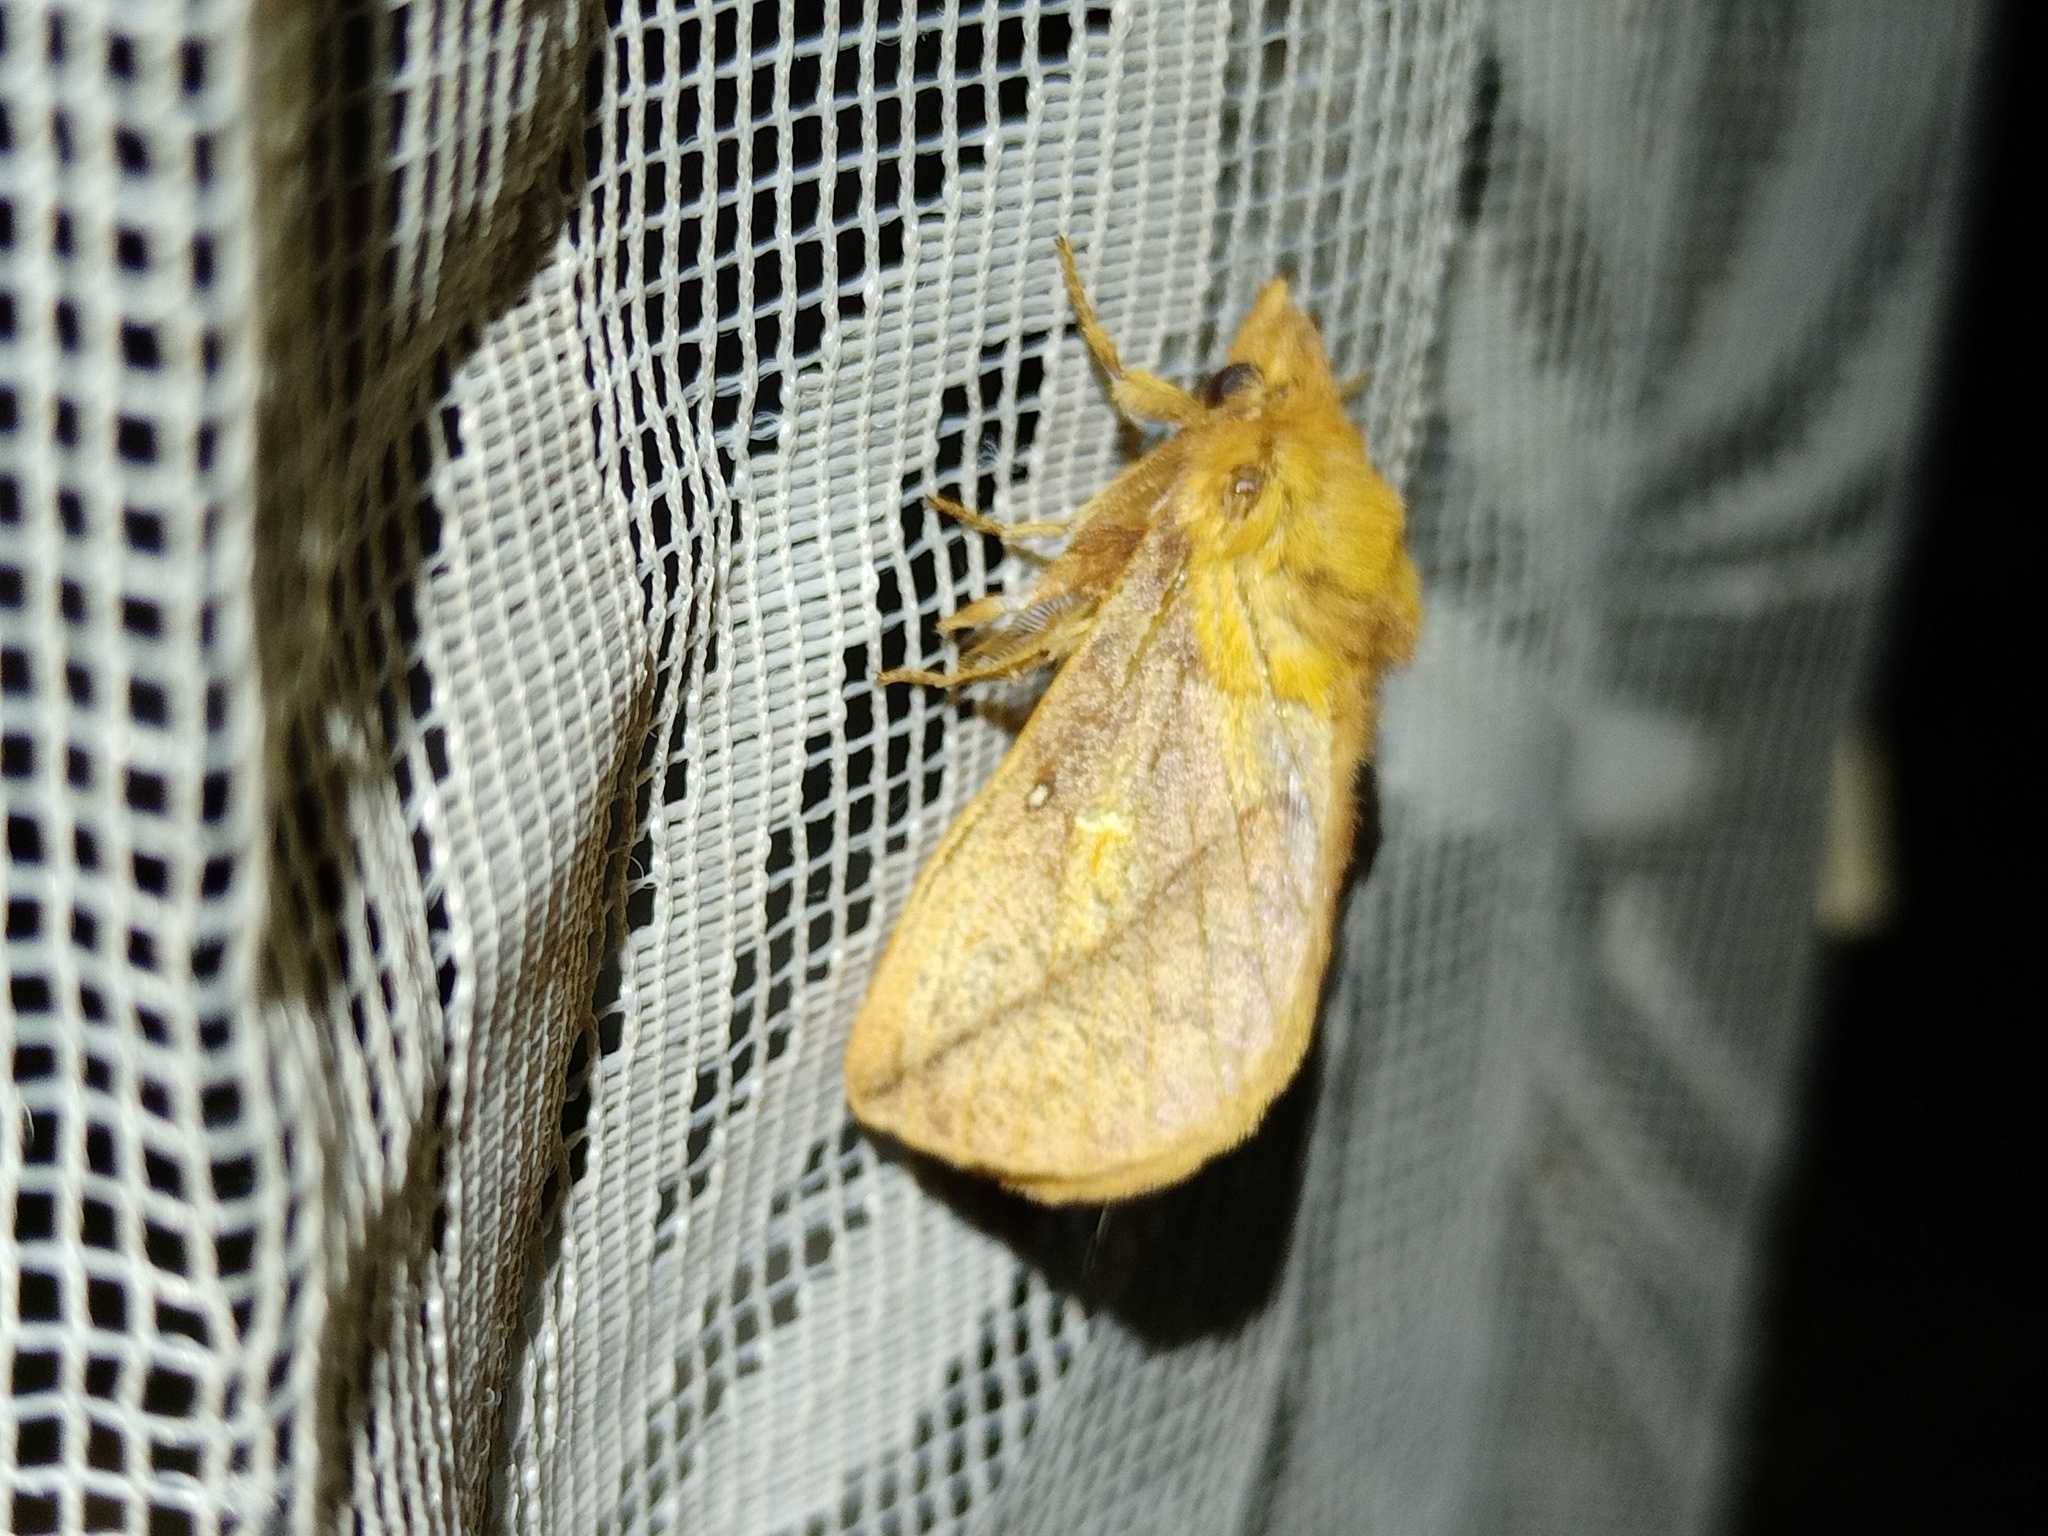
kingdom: Animalia
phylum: Arthropoda
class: Insecta
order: Lepidoptera
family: Lasiocampidae
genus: Euthrix
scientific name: Euthrix potatoria
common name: Drinker
